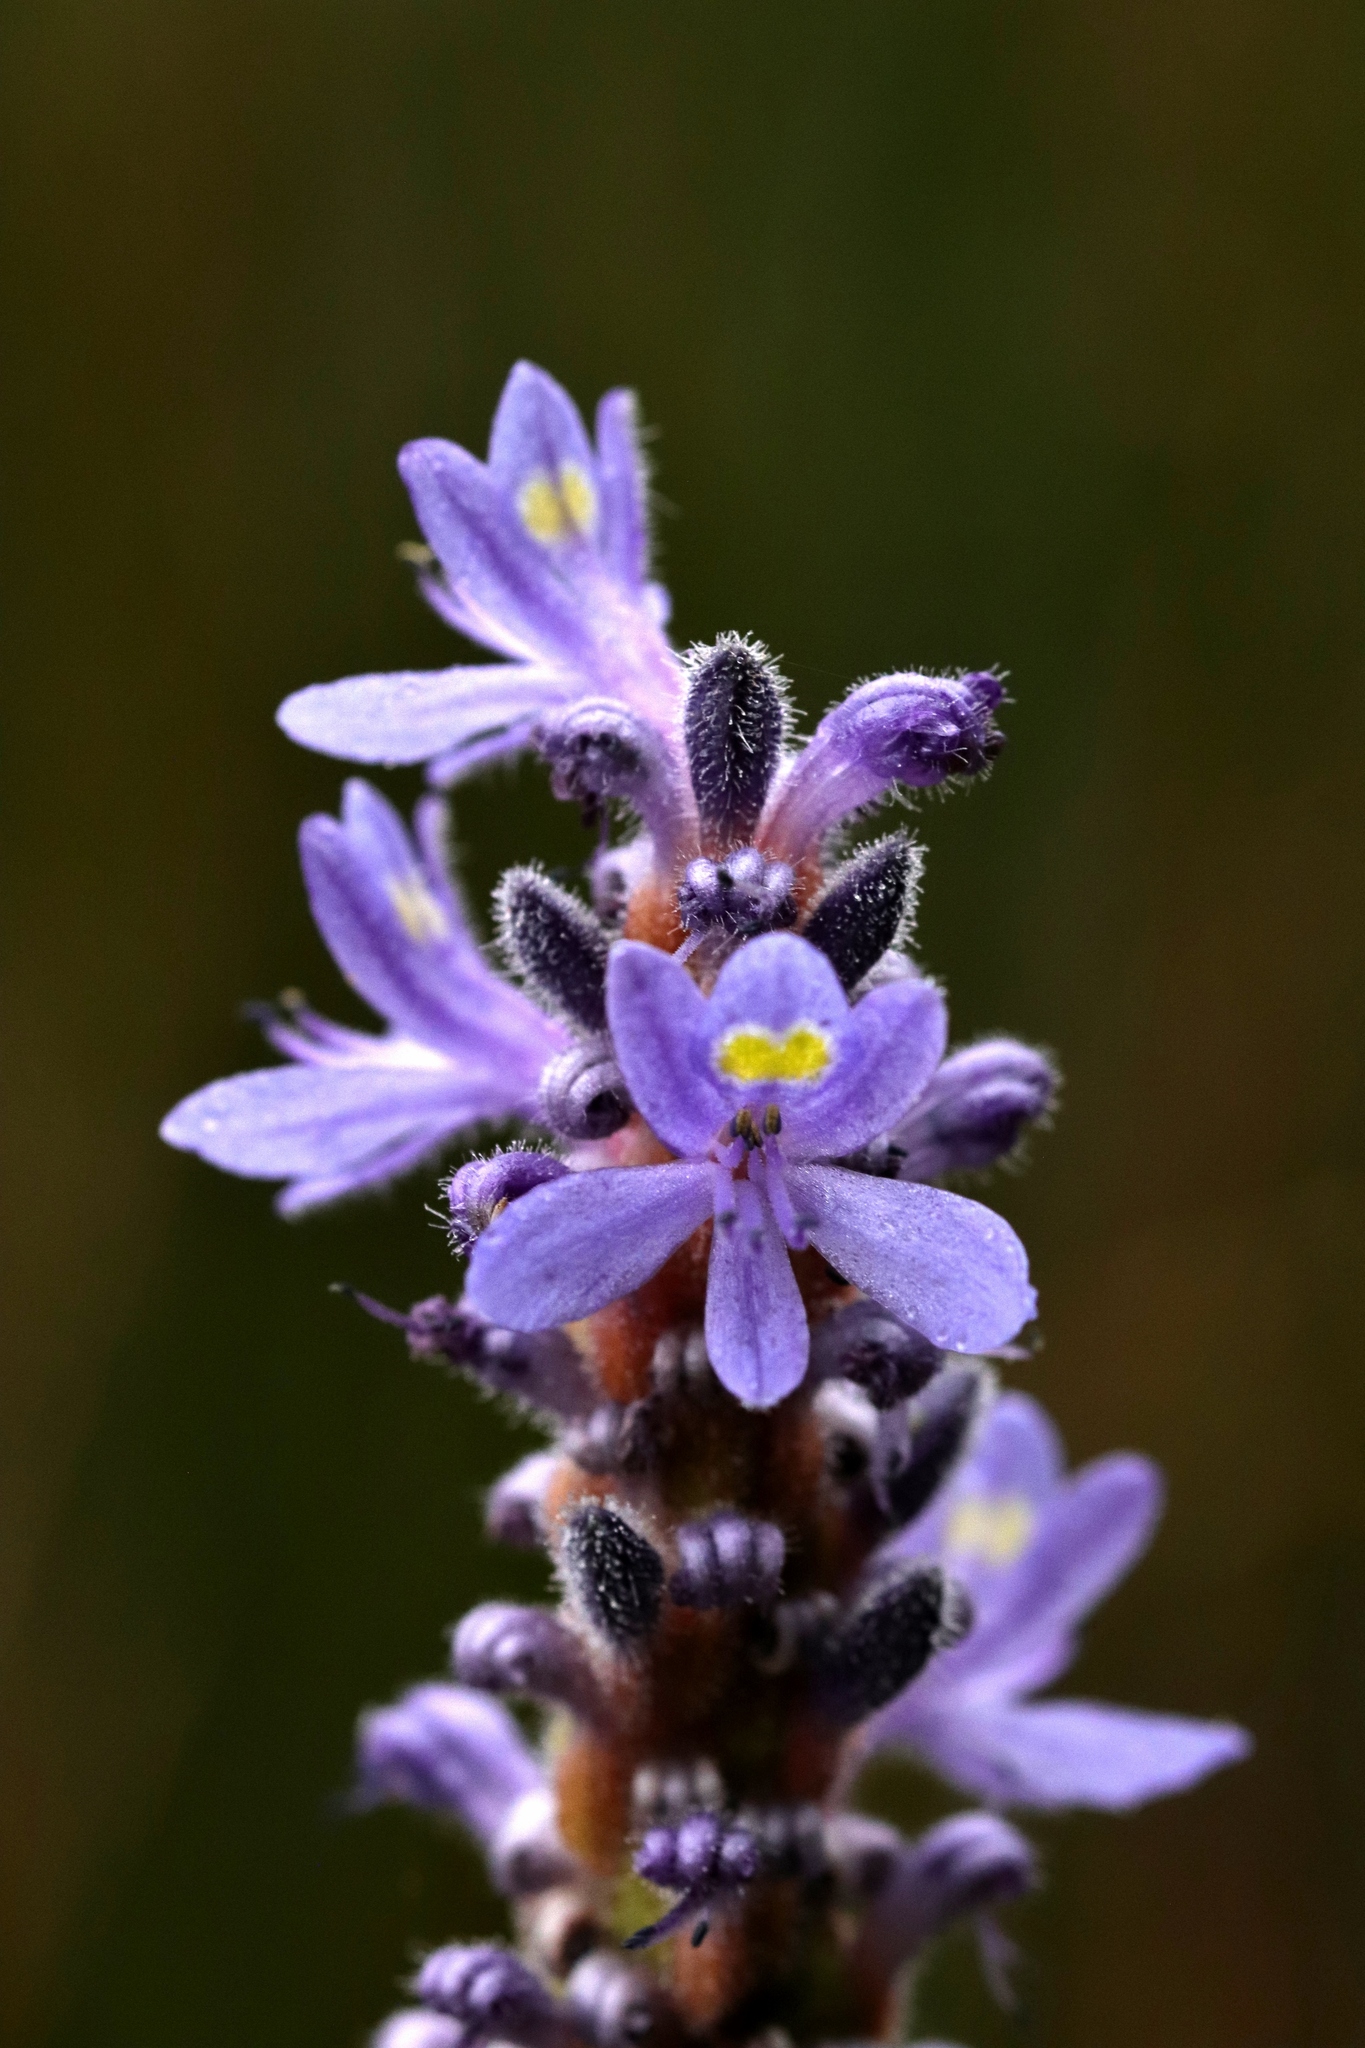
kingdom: Plantae
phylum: Tracheophyta
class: Liliopsida
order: Commelinales
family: Pontederiaceae
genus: Pontederia
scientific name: Pontederia cordata
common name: Pickerelweed
